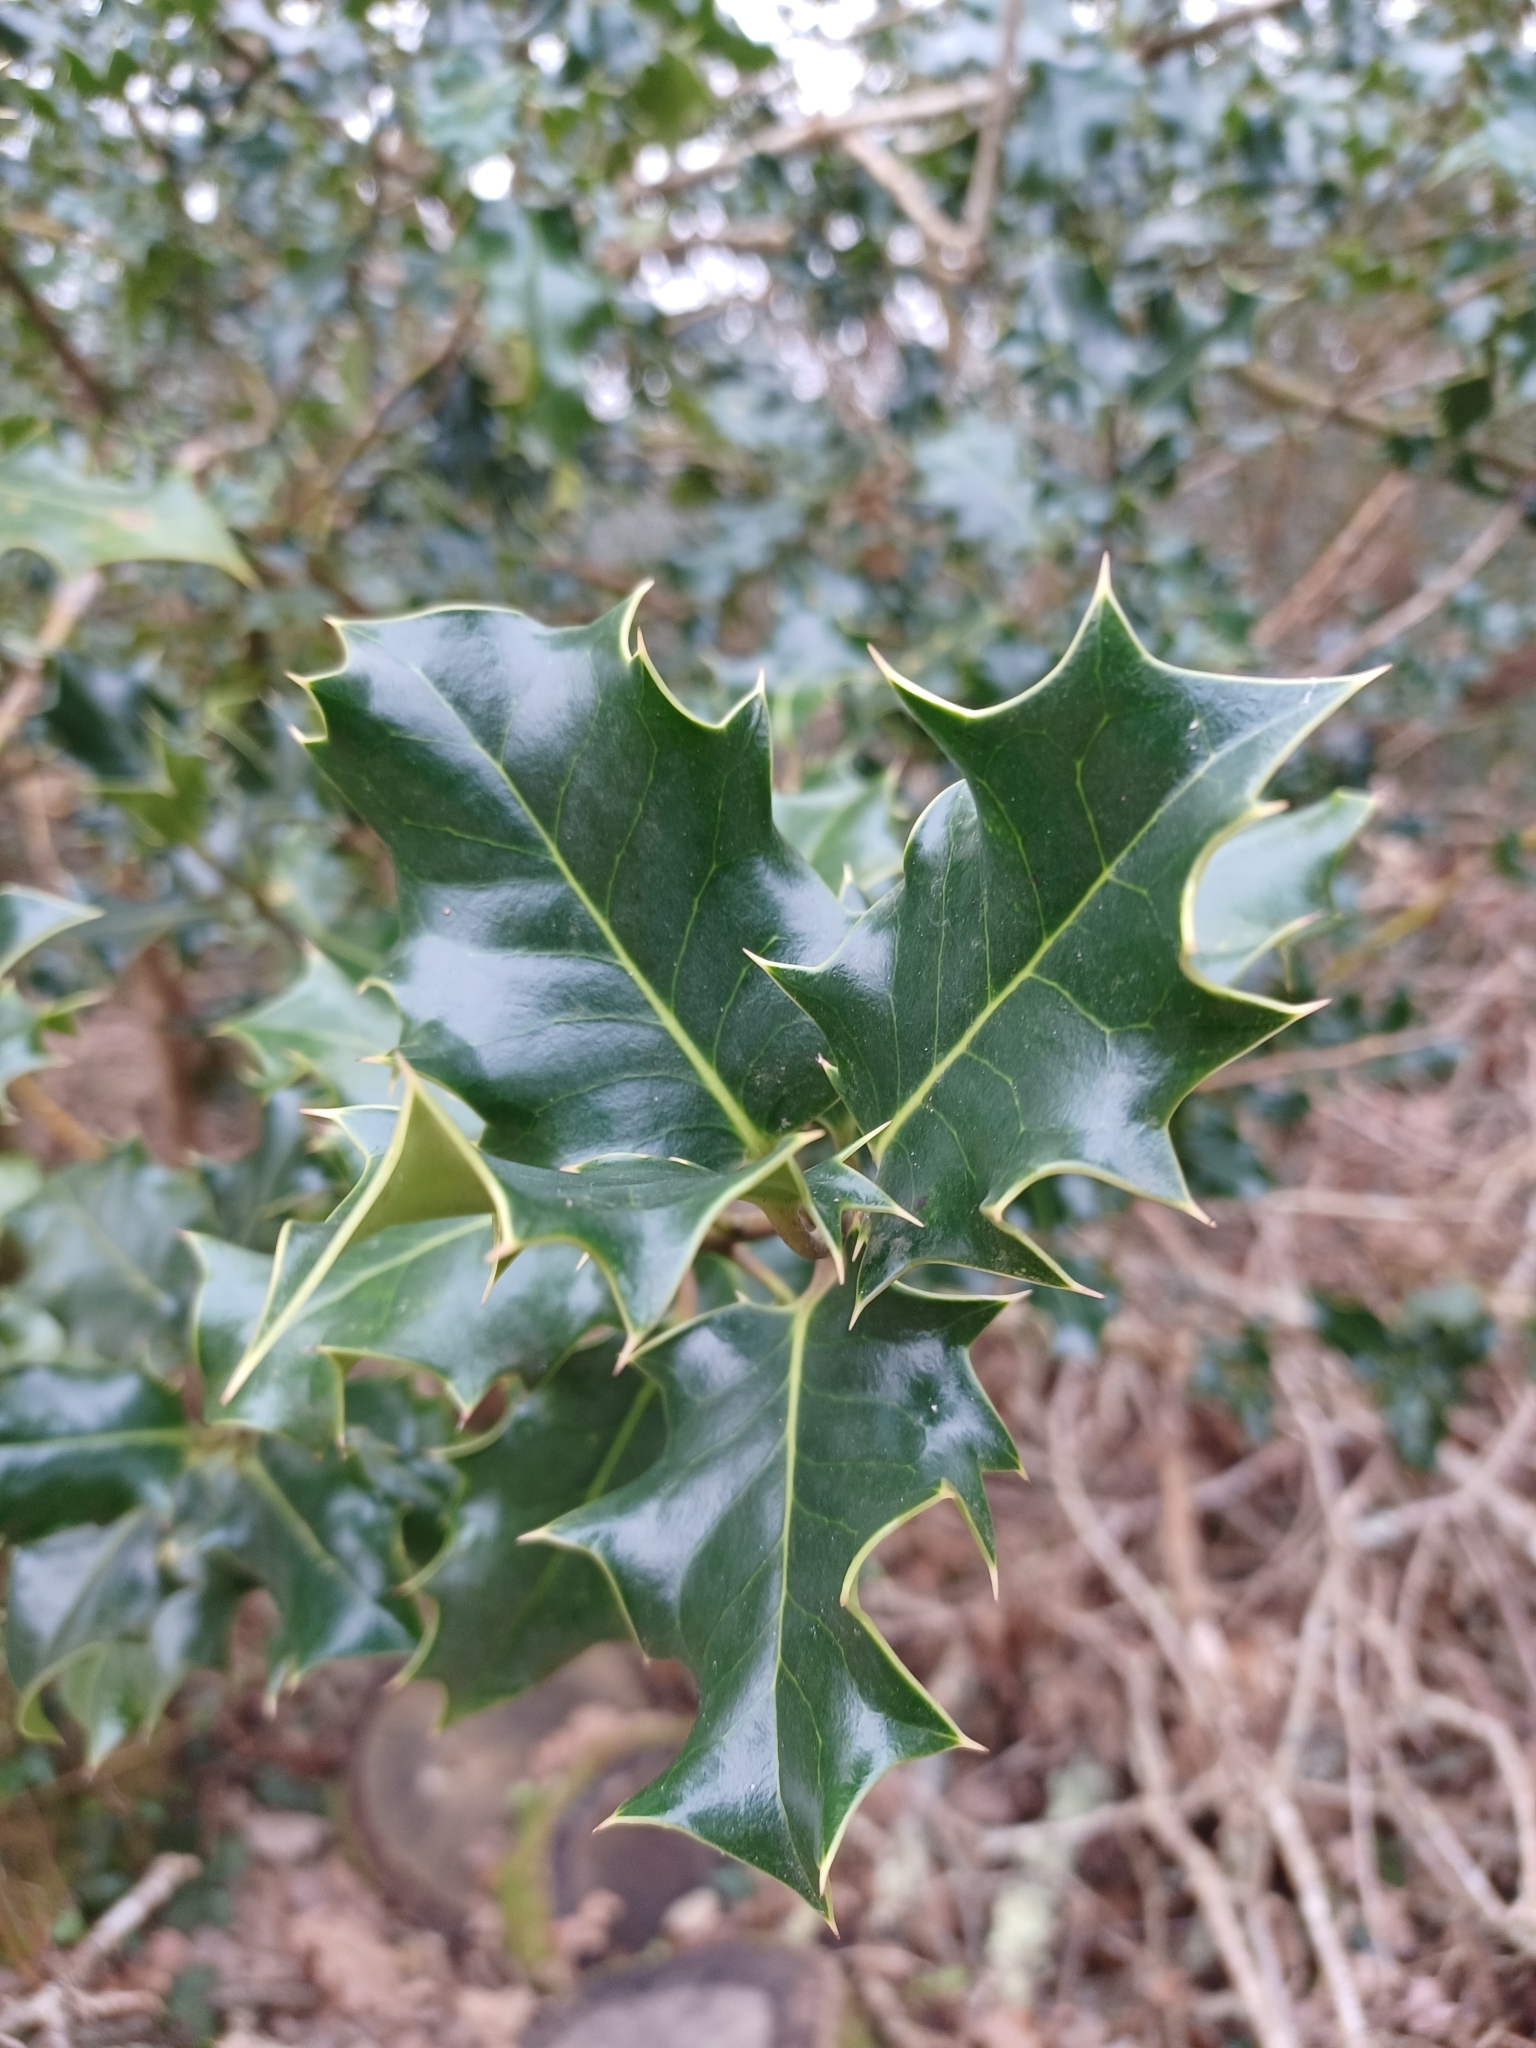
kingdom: Plantae
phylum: Tracheophyta
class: Magnoliopsida
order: Aquifoliales
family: Aquifoliaceae
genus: Ilex
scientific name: Ilex aquifolium
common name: English holly
